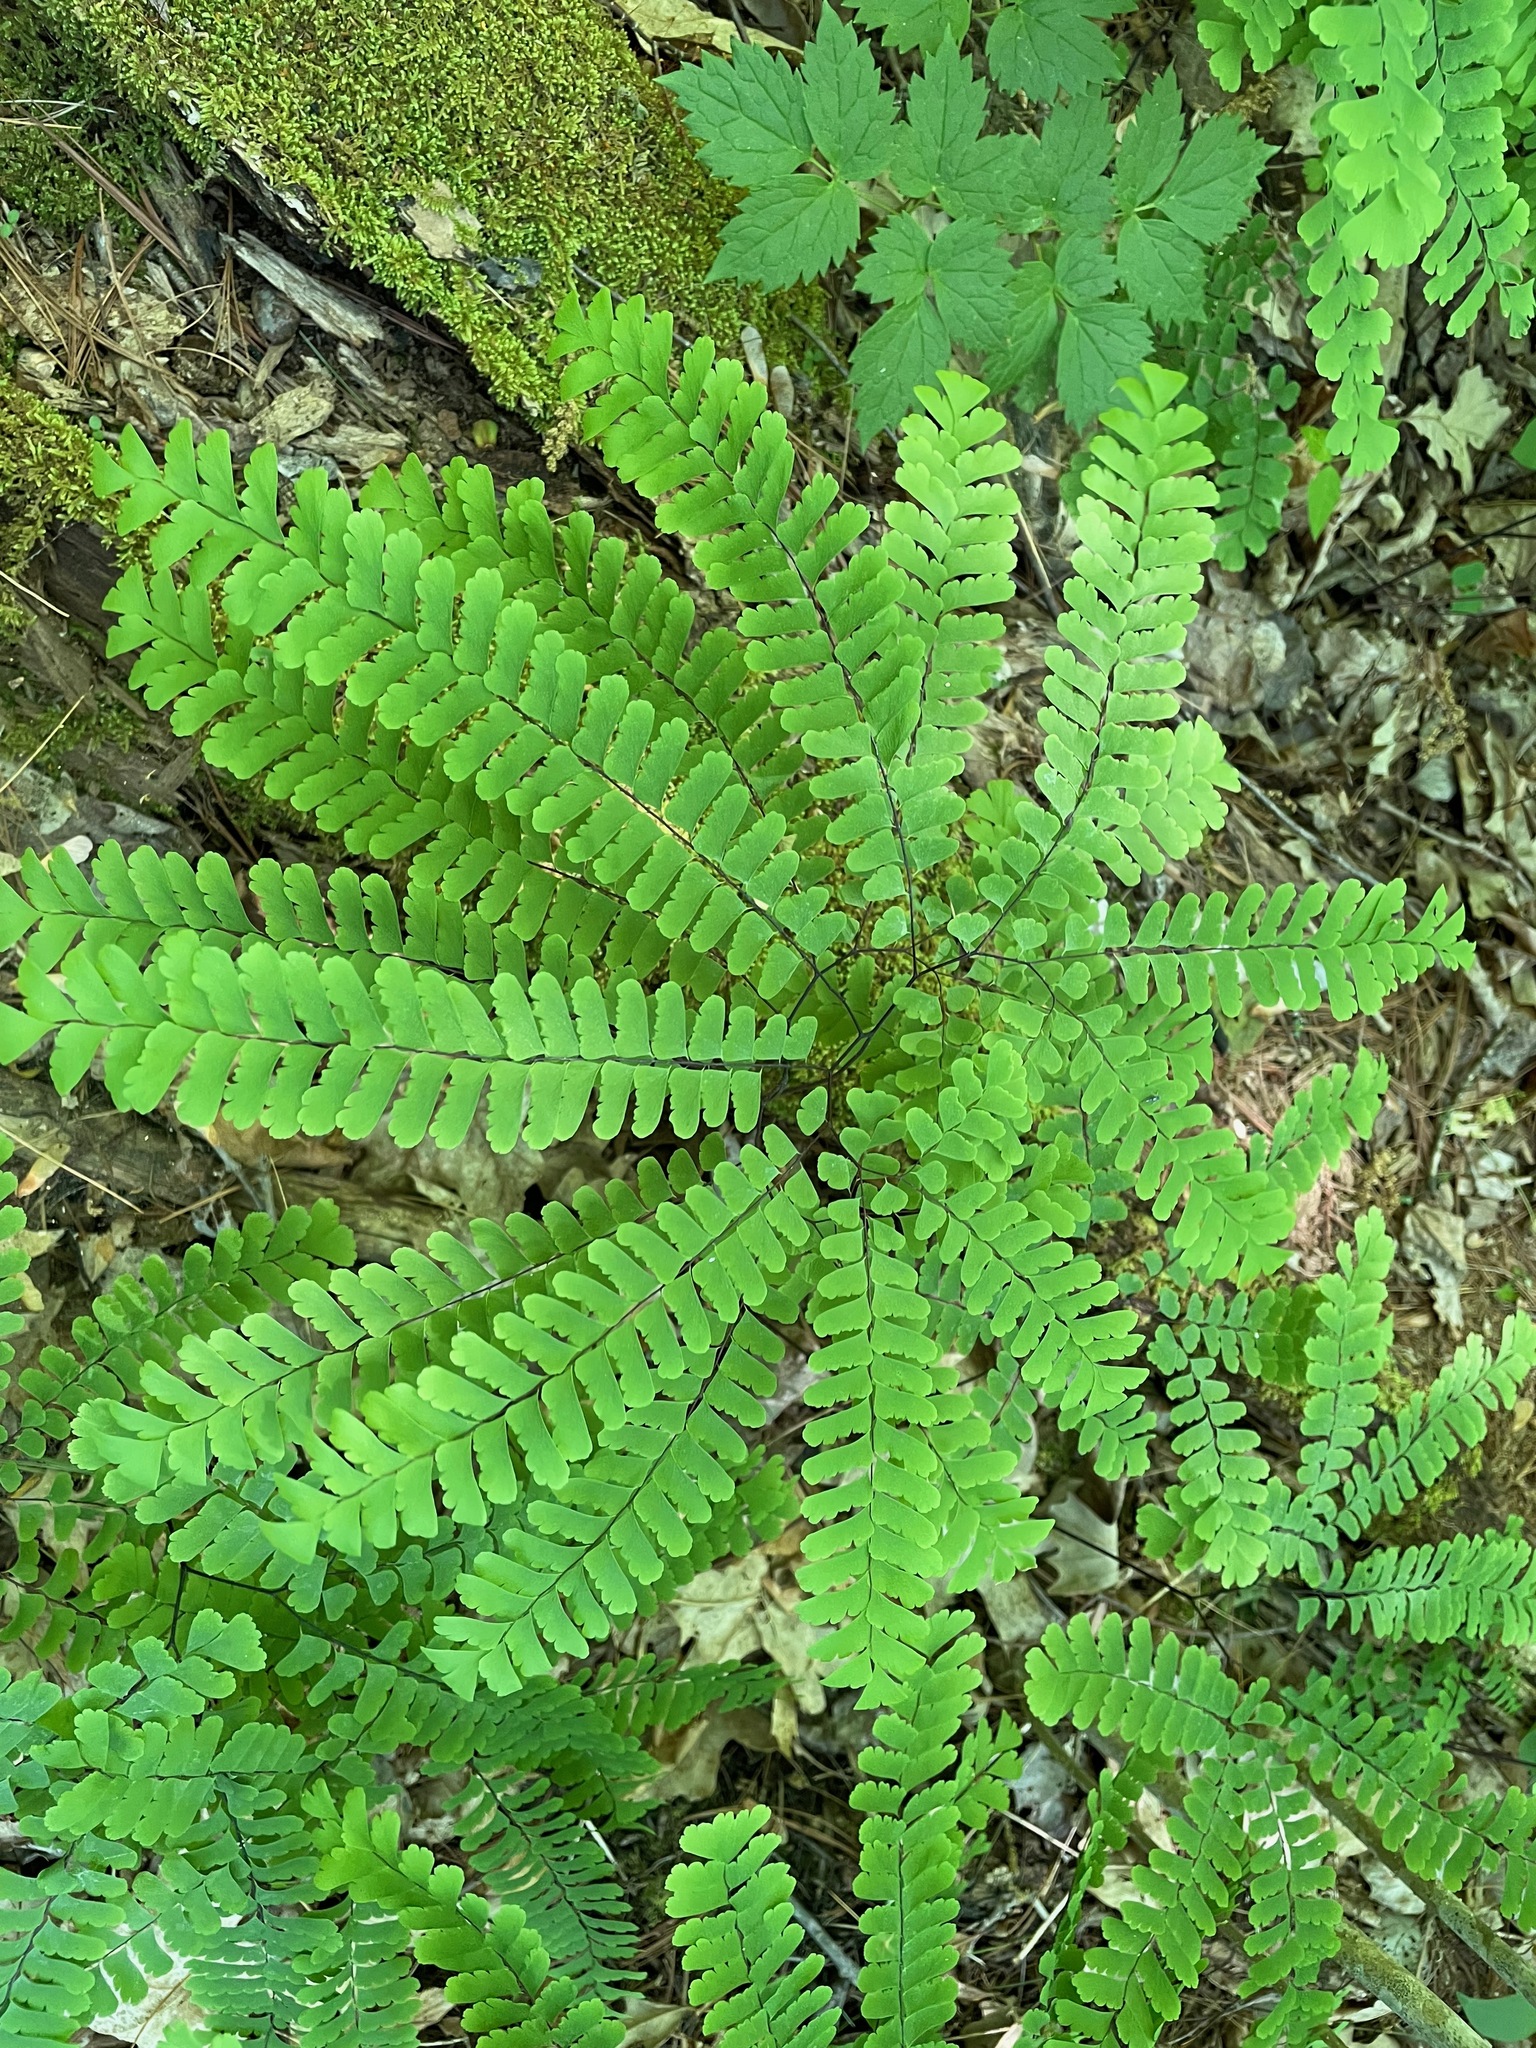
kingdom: Plantae
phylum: Tracheophyta
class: Polypodiopsida
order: Polypodiales
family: Pteridaceae
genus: Adiantum
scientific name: Adiantum pedatum
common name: Five-finger fern
